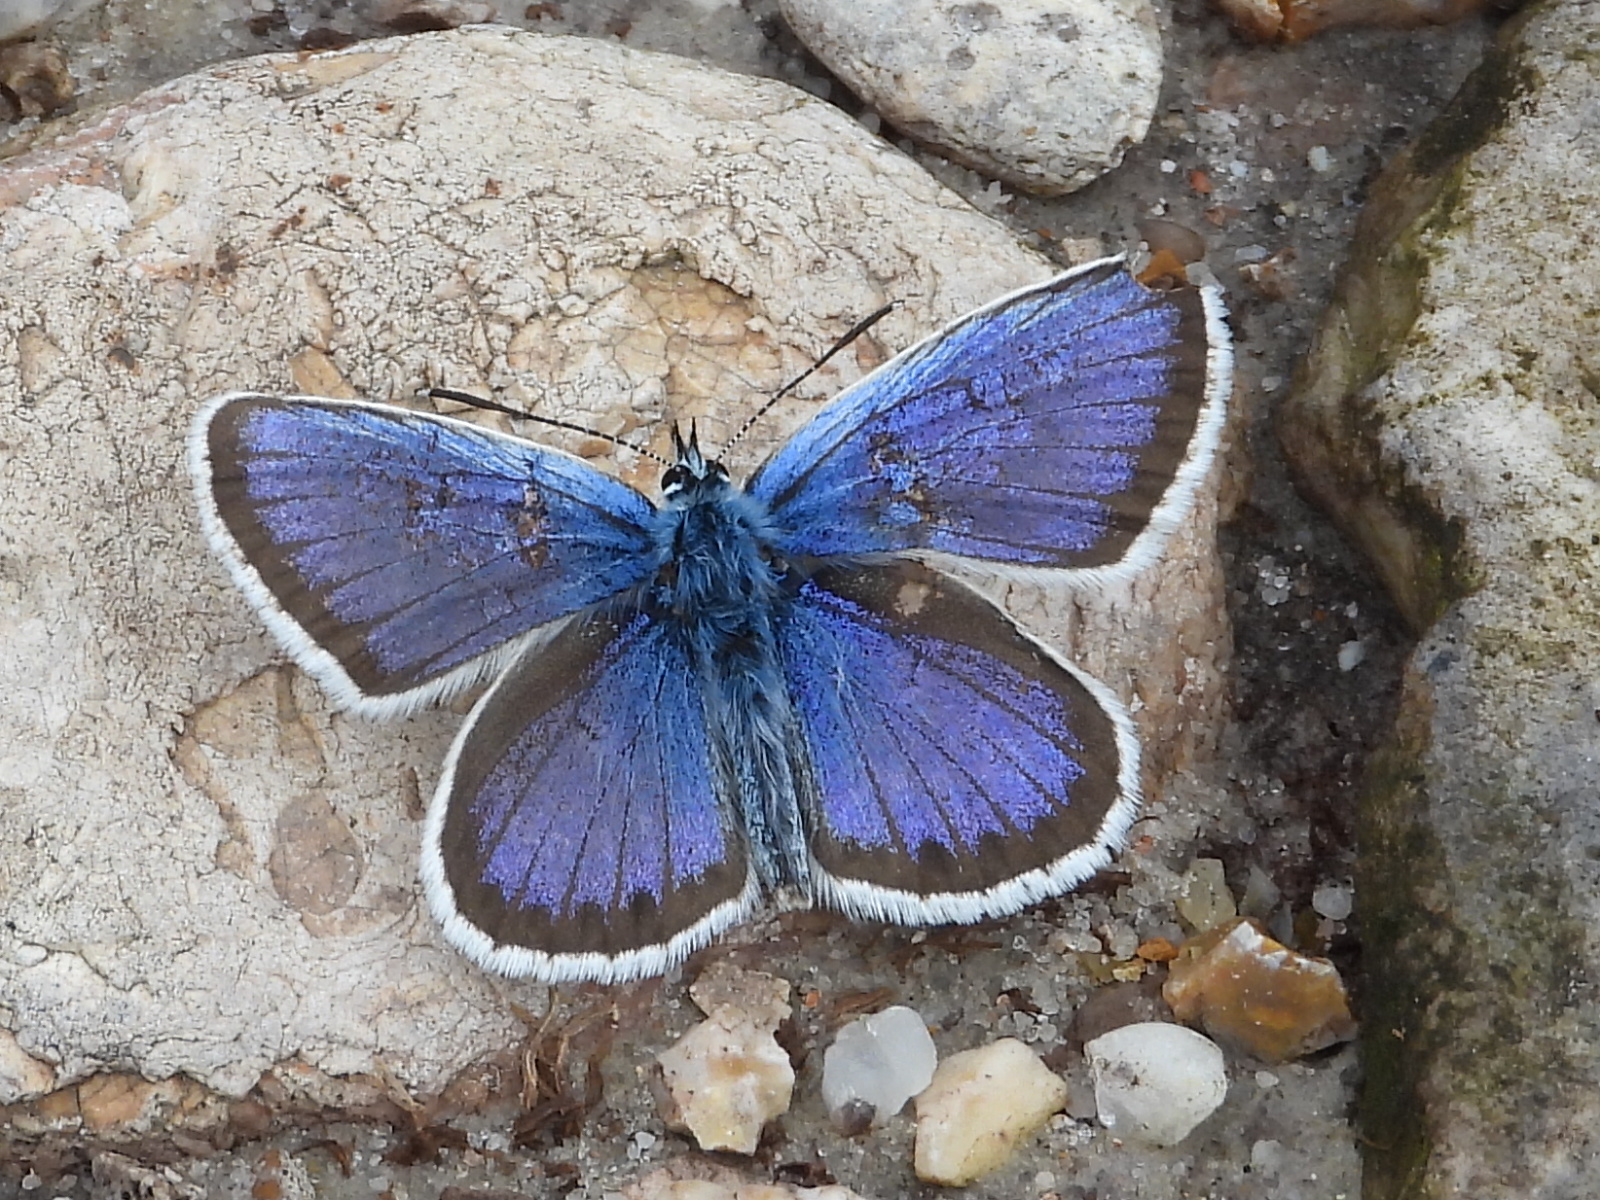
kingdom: Animalia
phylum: Arthropoda
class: Insecta
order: Lepidoptera
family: Lycaenidae
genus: Plebejus
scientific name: Plebejus argus
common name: Silver-studded blue
